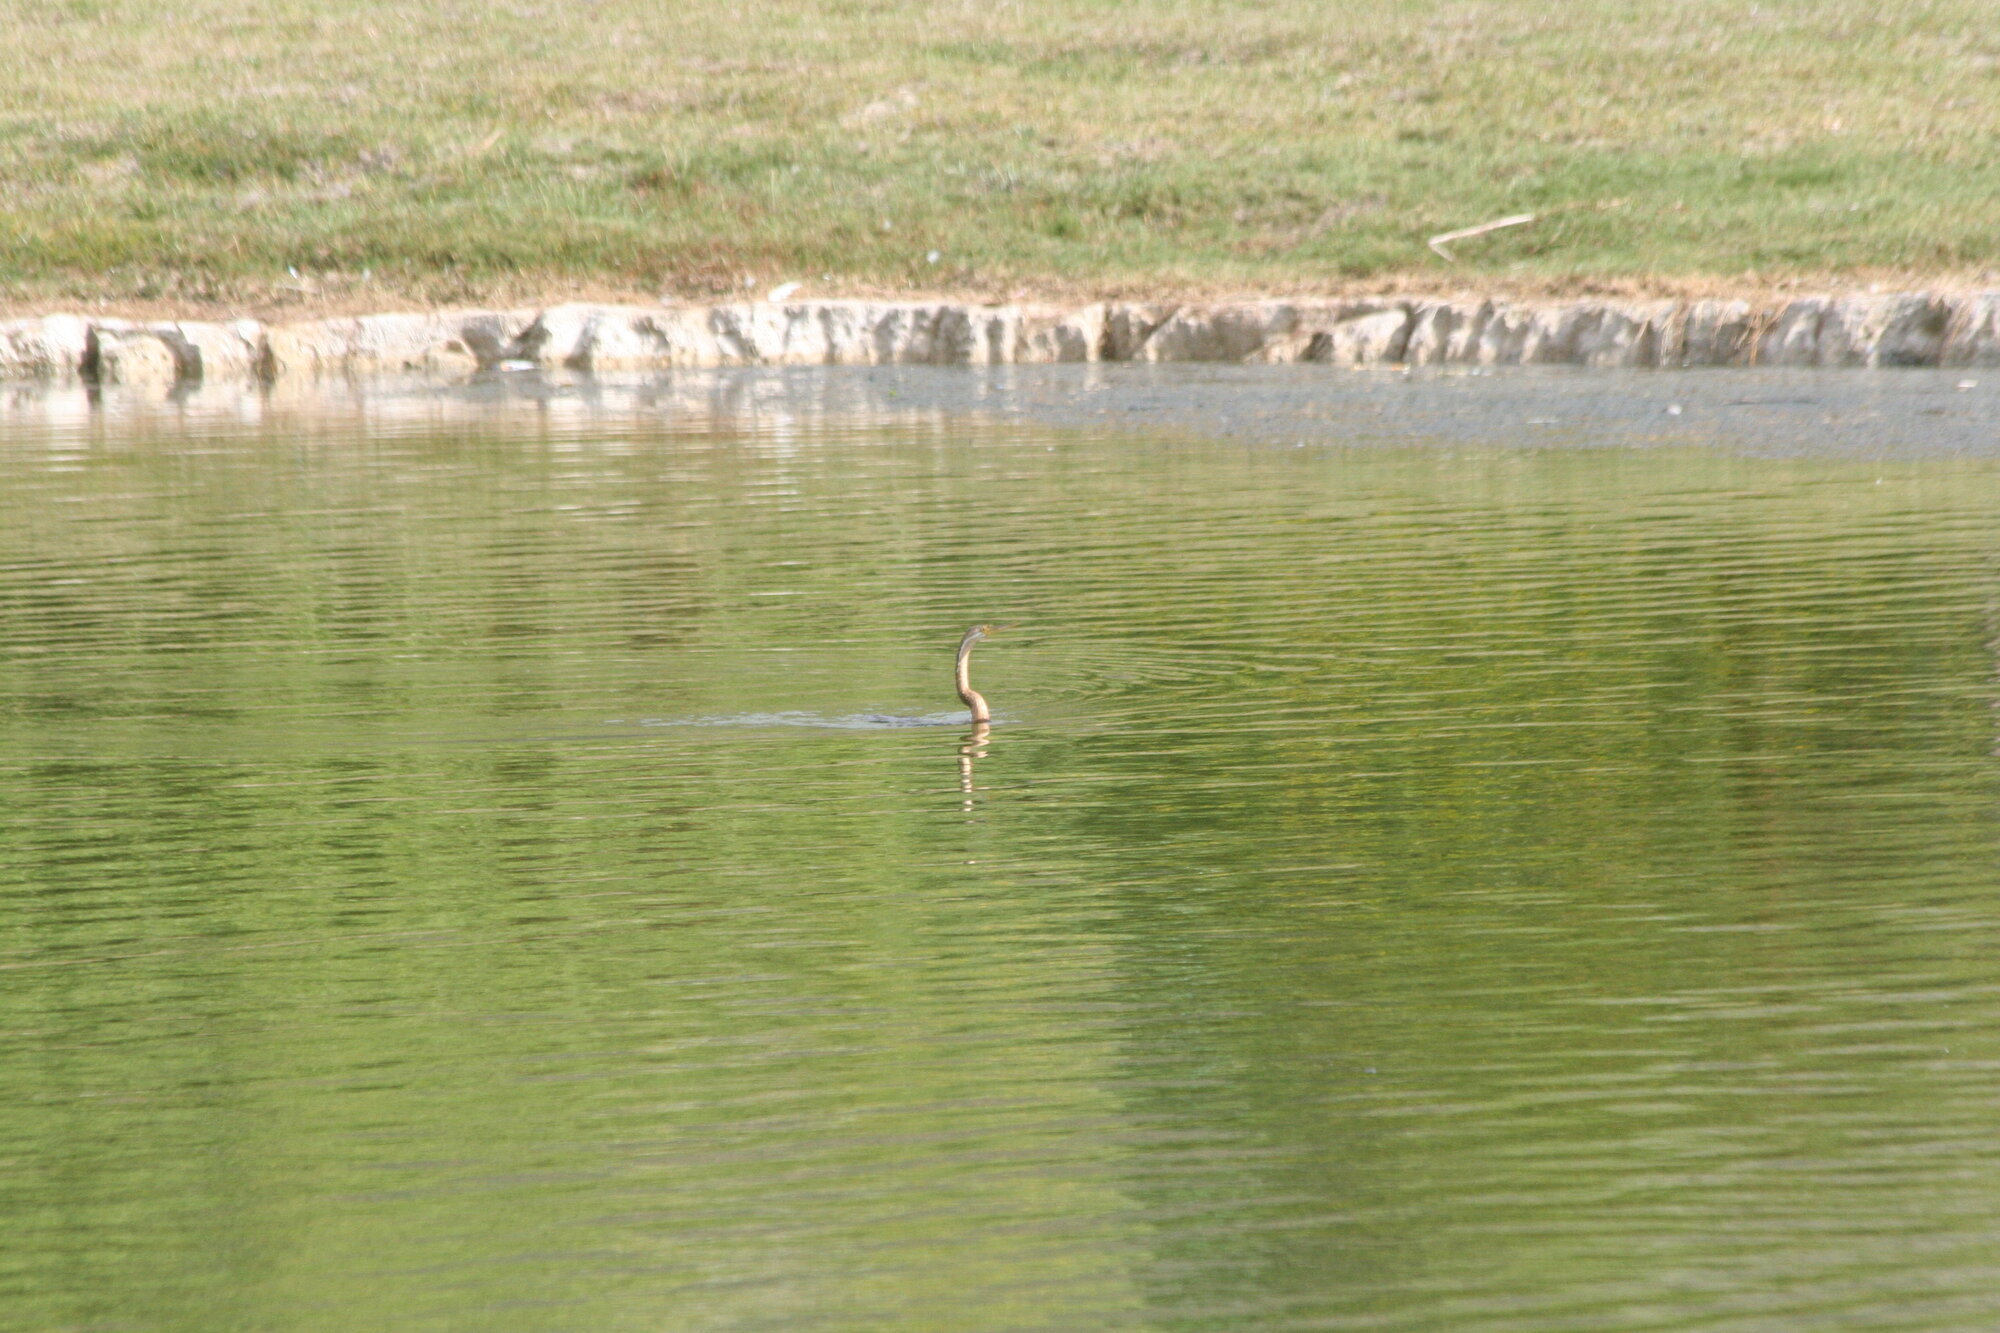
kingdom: Animalia
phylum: Chordata
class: Aves
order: Suliformes
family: Anhingidae
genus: Anhinga
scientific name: Anhinga rufa
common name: African darter
